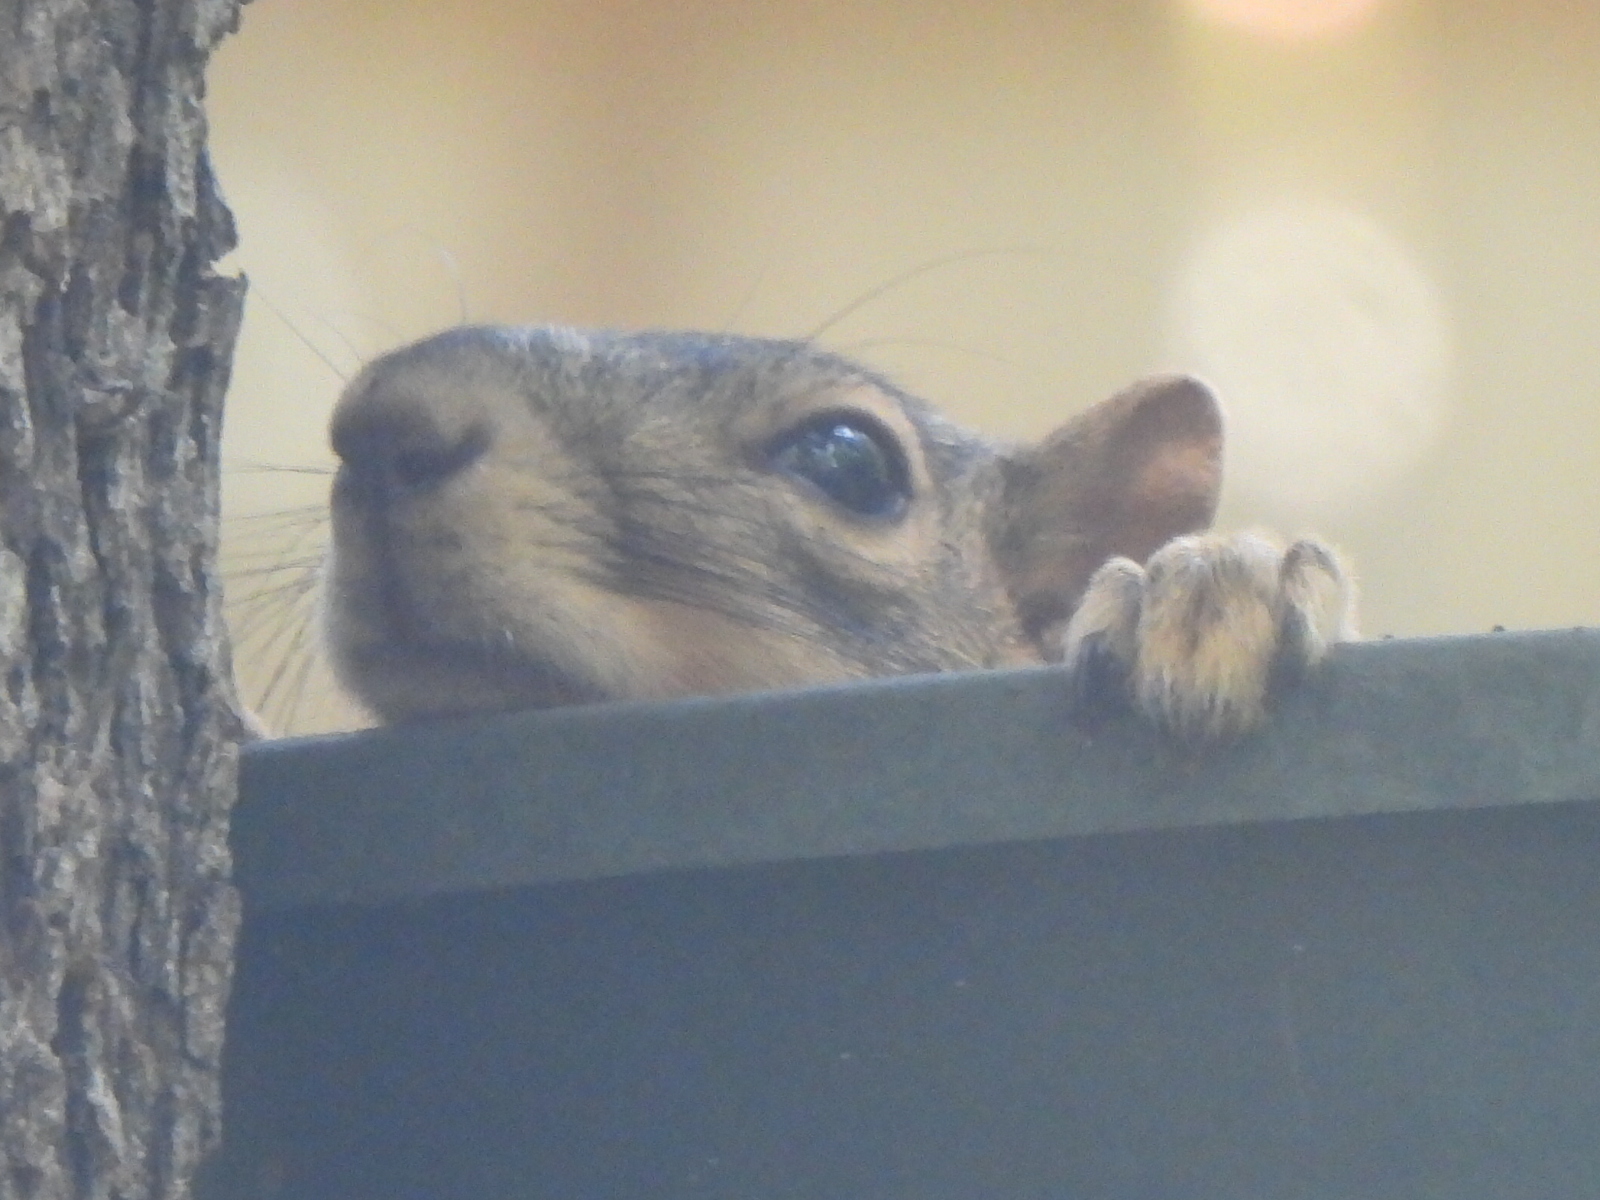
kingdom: Animalia
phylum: Chordata
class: Mammalia
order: Rodentia
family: Sciuridae
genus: Sciurus
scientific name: Sciurus niger
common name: Fox squirrel
